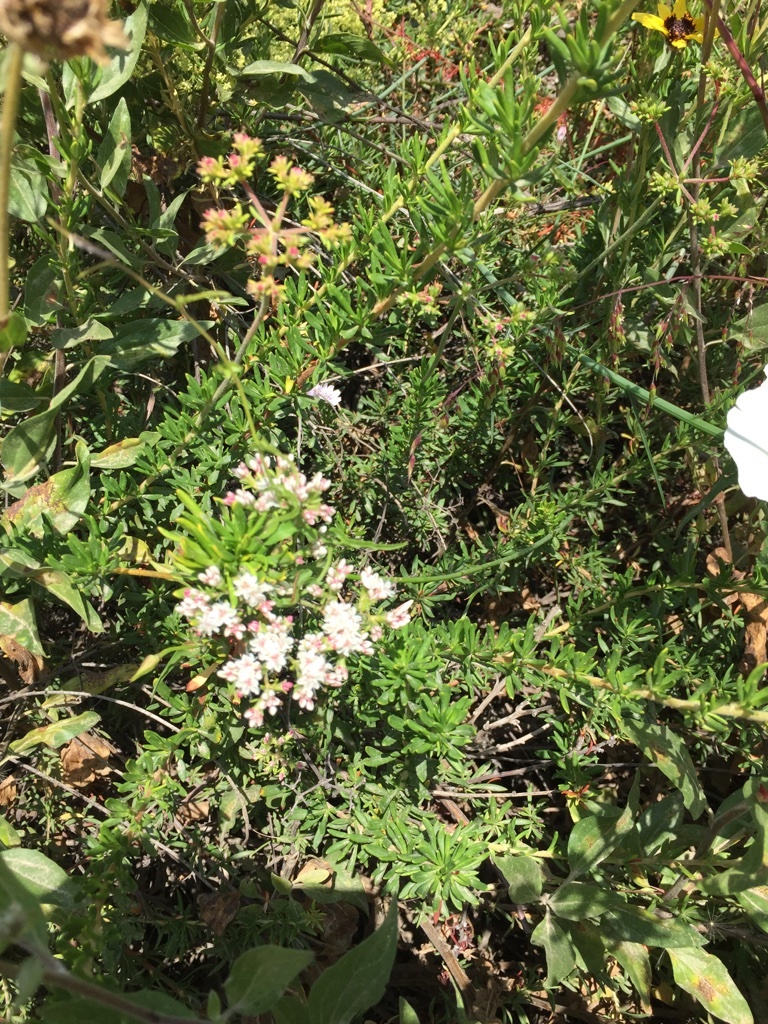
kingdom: Plantae
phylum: Tracheophyta
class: Magnoliopsida
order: Caryophyllales
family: Polygonaceae
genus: Eriogonum
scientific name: Eriogonum fasciculatum
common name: California wild buckwheat
